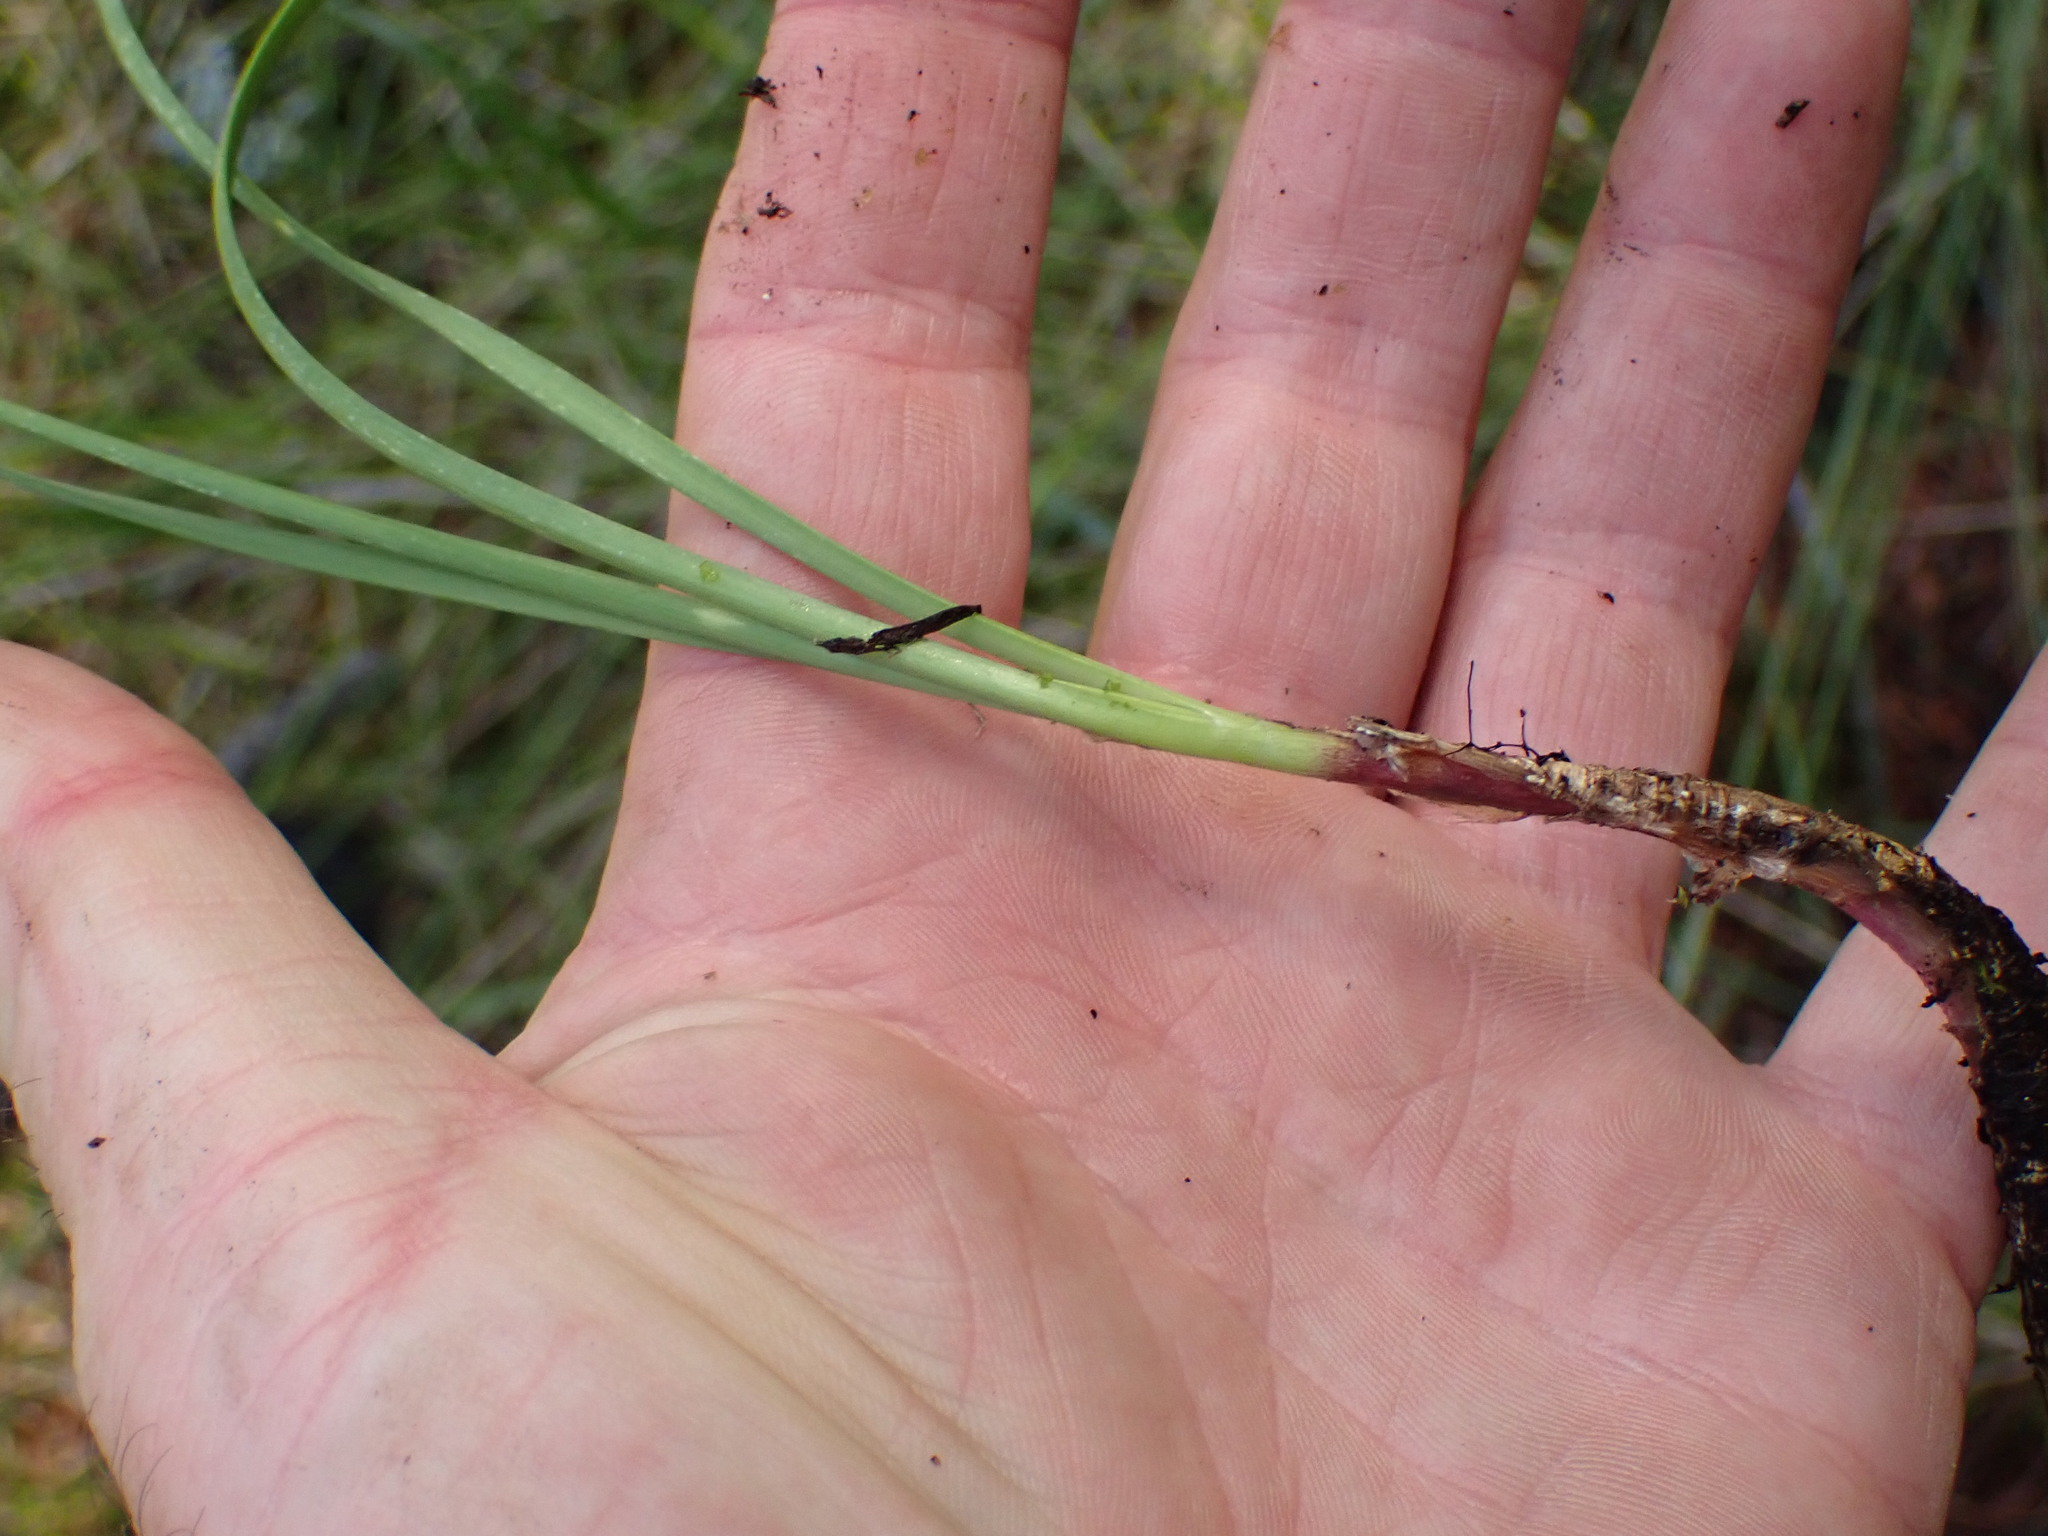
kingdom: Plantae
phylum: Tracheophyta
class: Liliopsida
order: Asparagales
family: Amaryllidaceae
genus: Allium
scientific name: Allium cernuum
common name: Nodding onion
